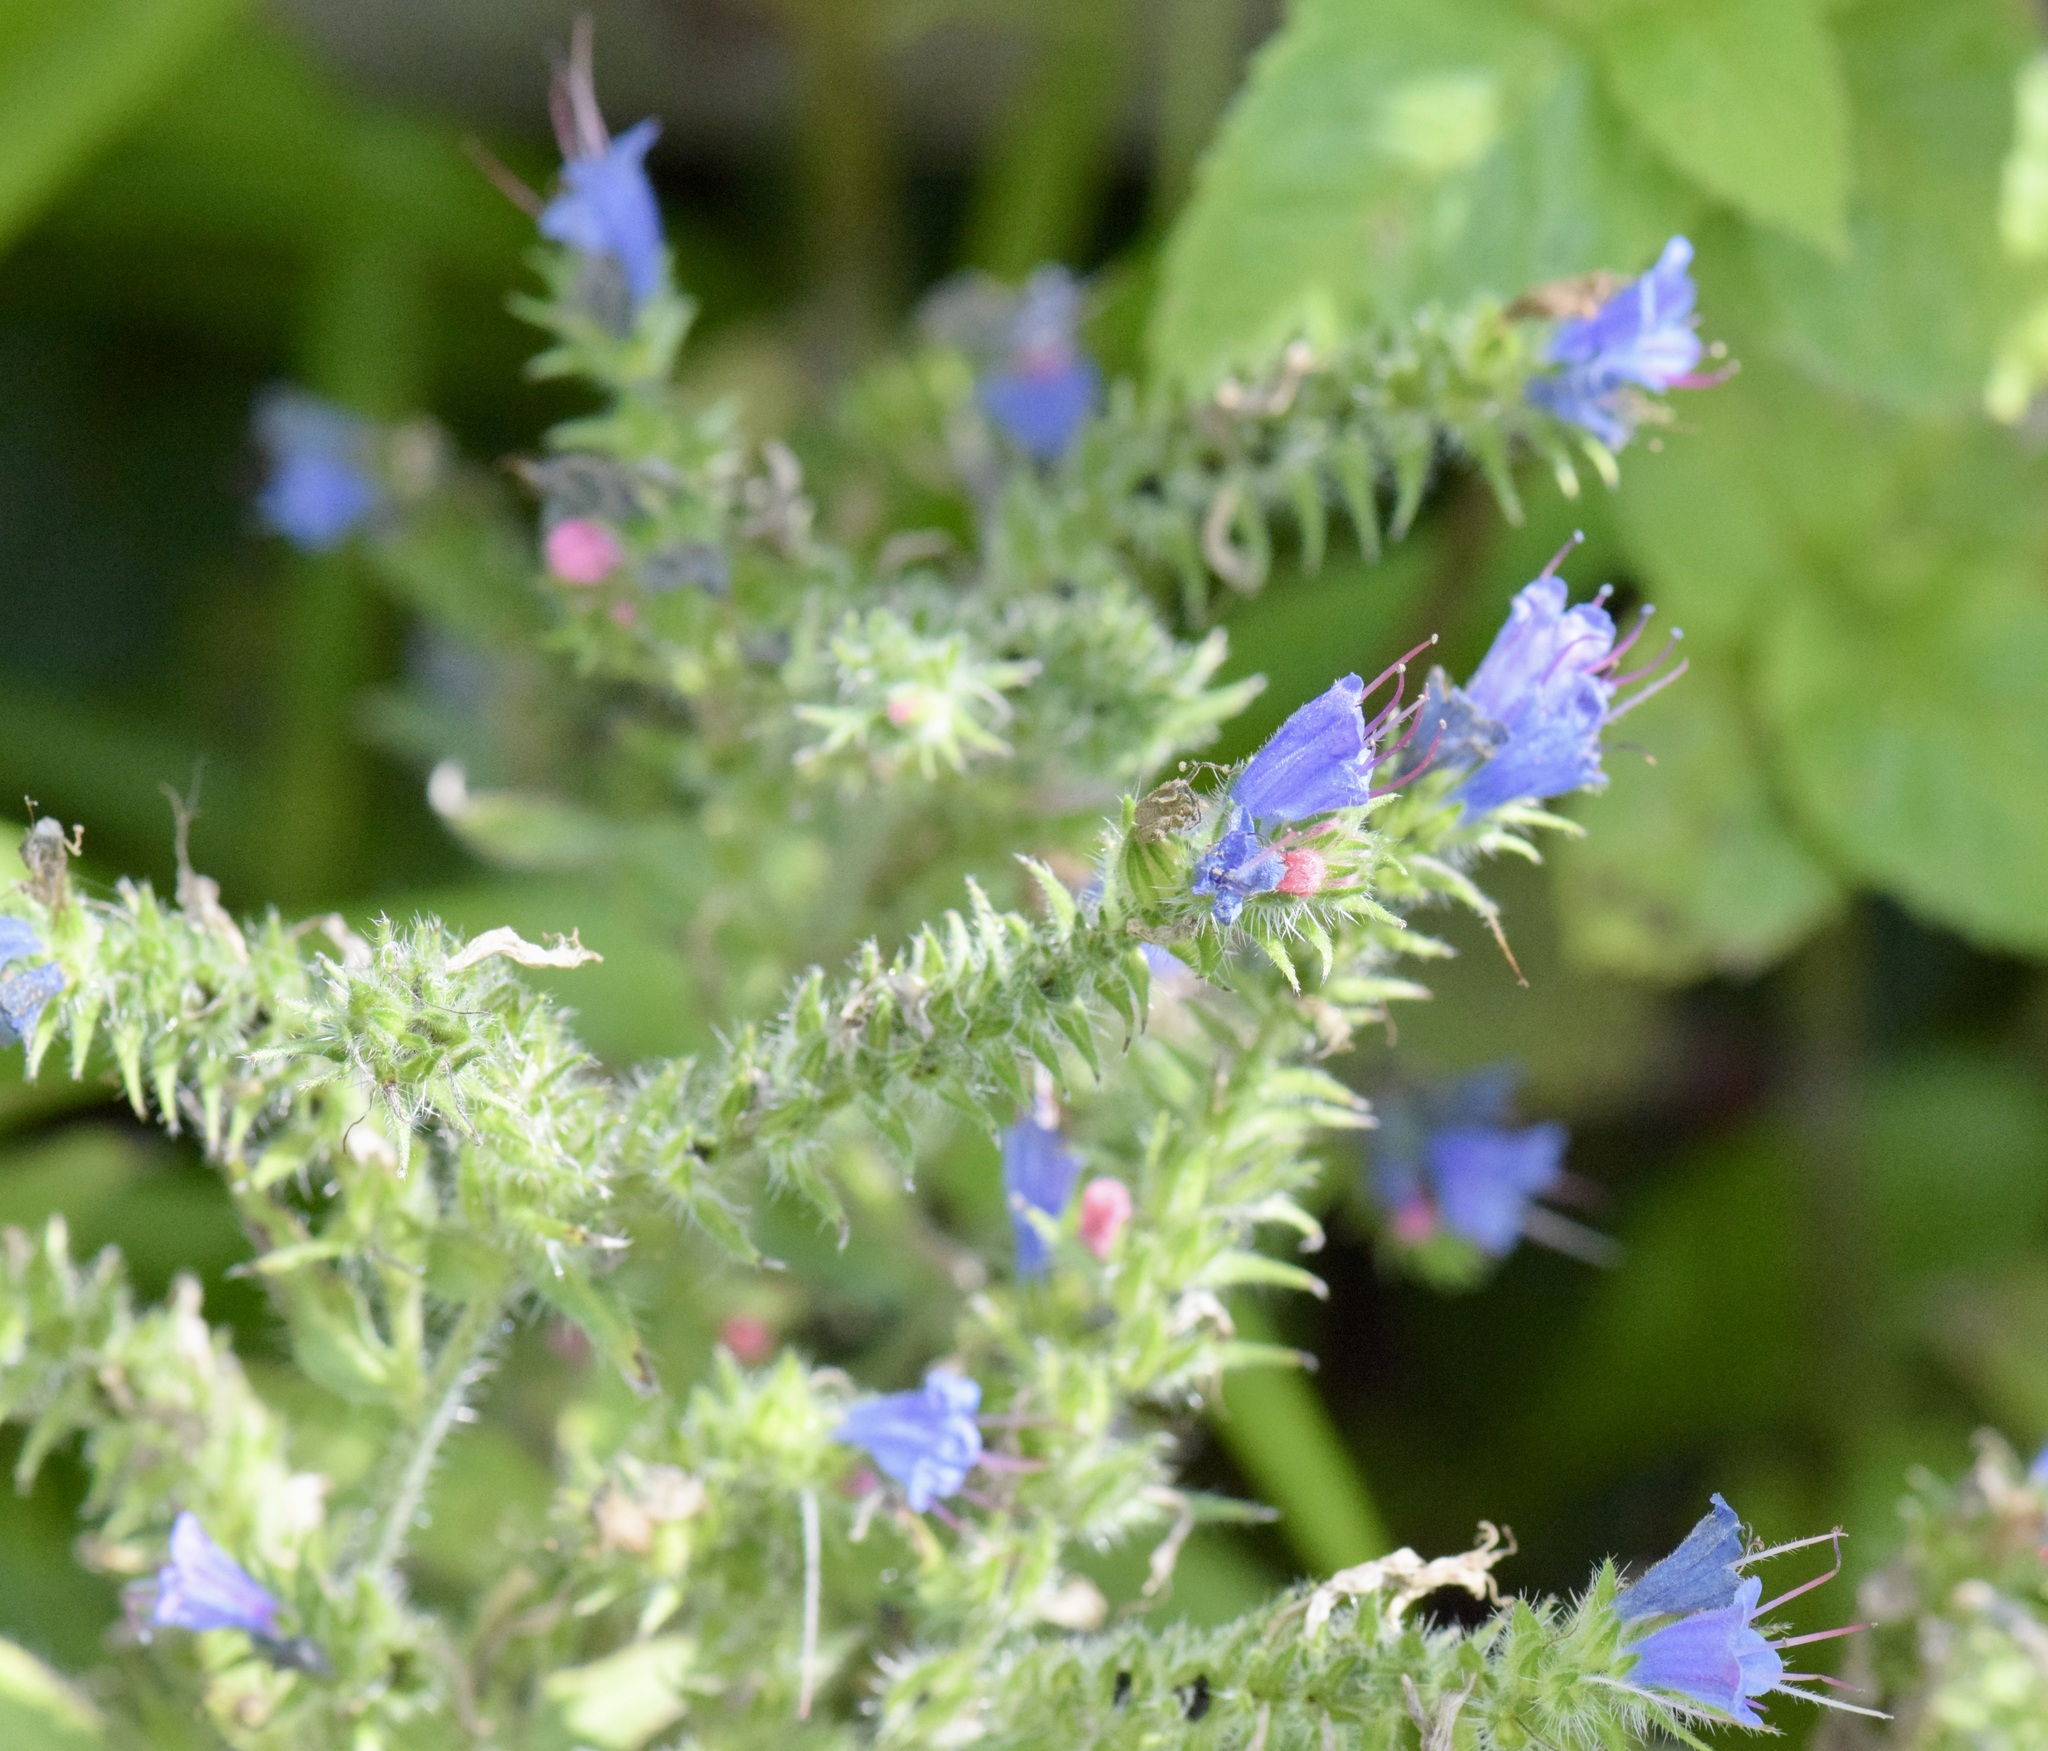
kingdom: Plantae
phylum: Tracheophyta
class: Magnoliopsida
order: Boraginales
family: Boraginaceae
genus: Echium
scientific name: Echium vulgare
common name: Common viper's bugloss
